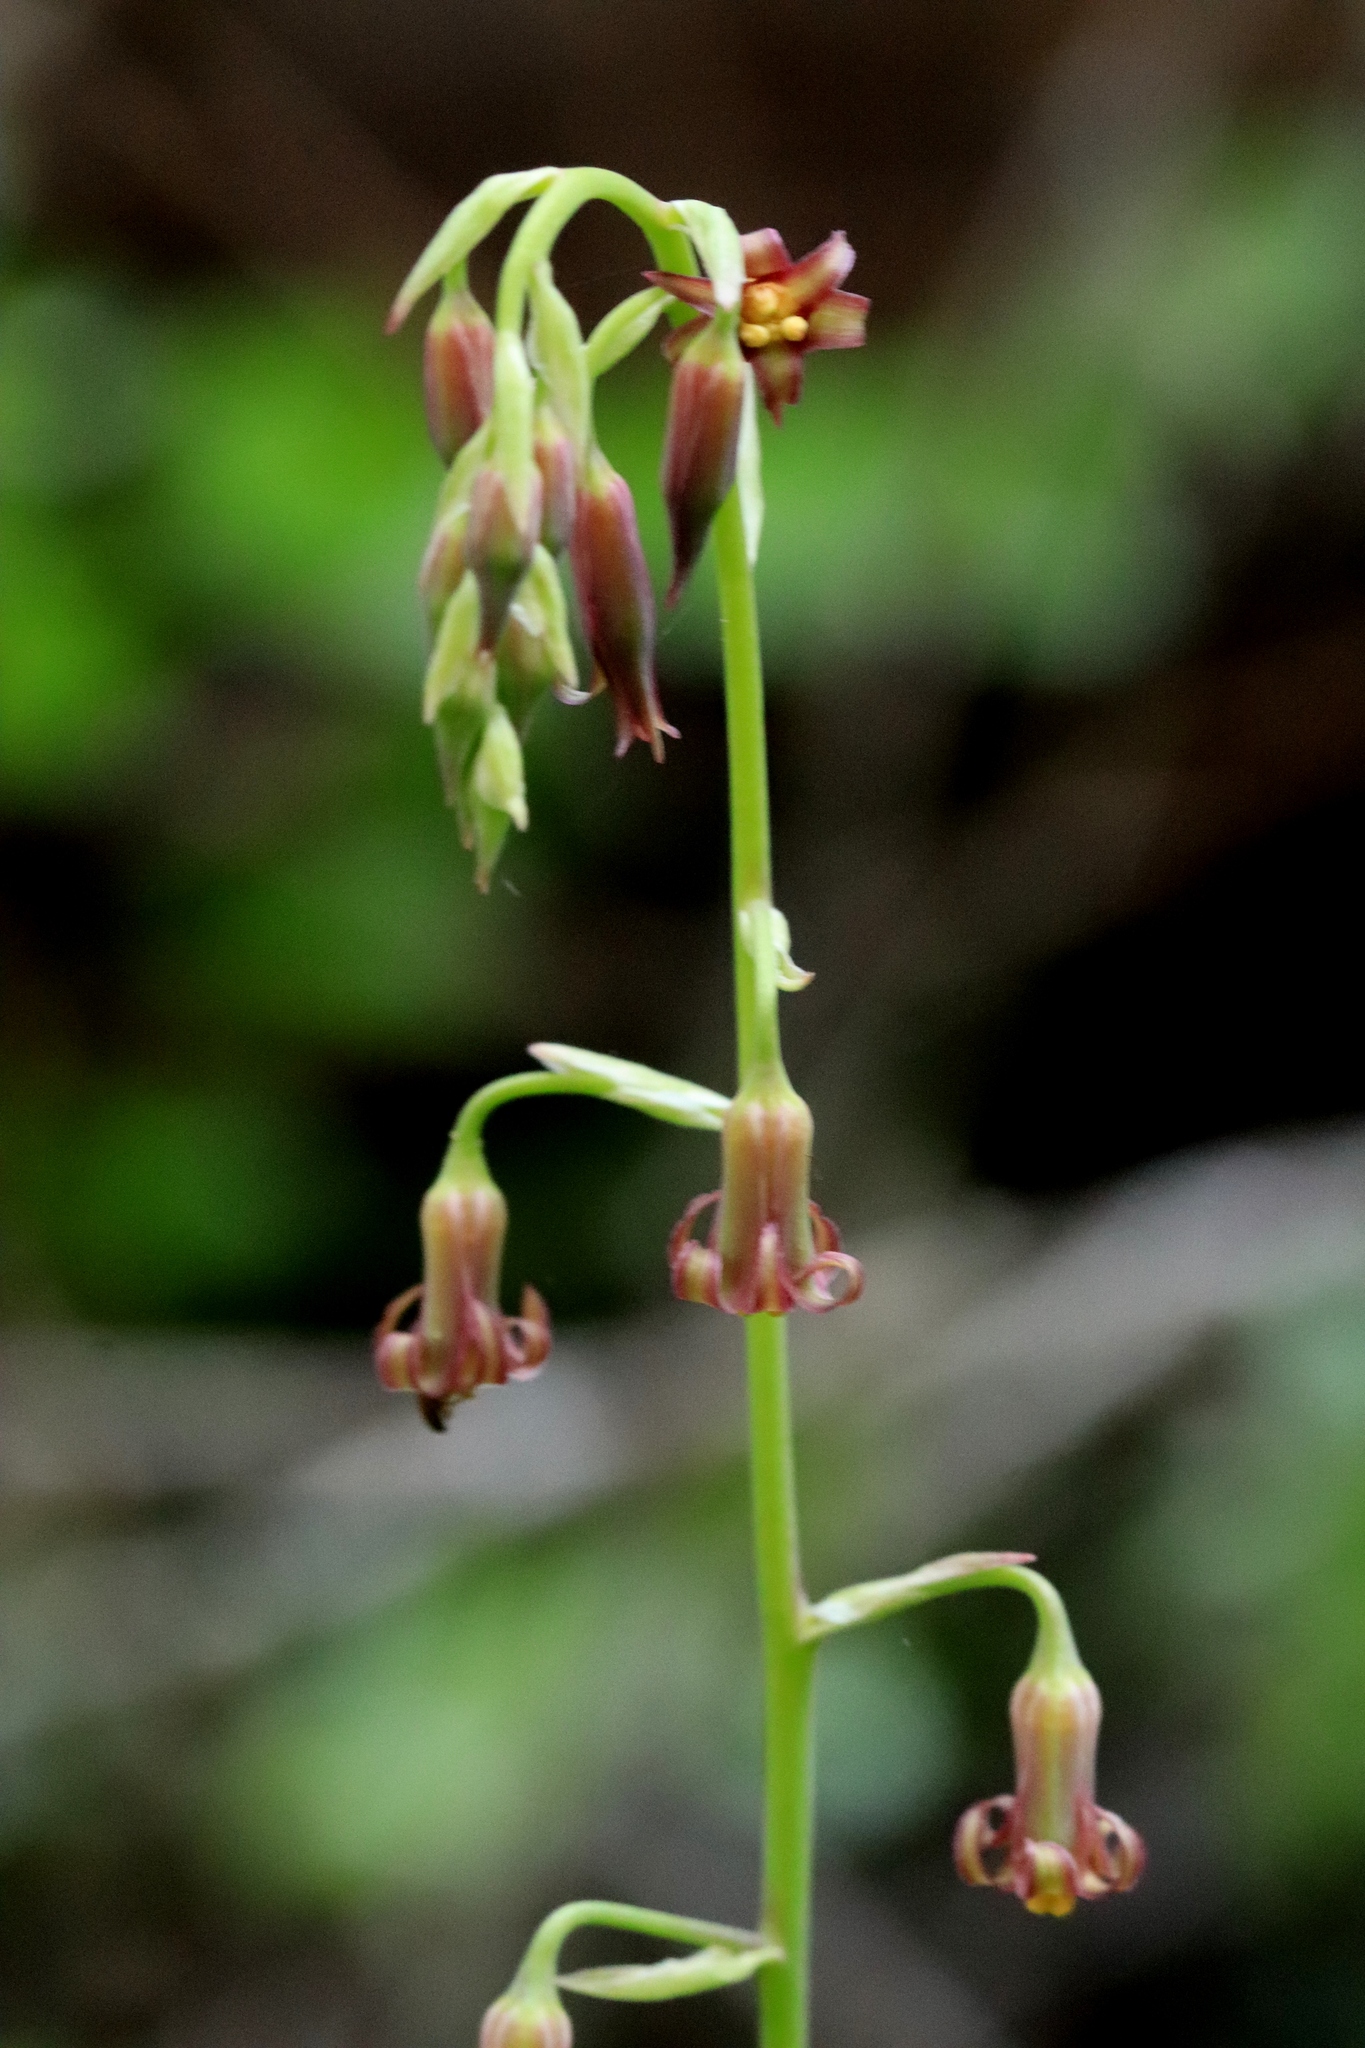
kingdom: Plantae
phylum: Tracheophyta
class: Liliopsida
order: Liliales
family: Melanthiaceae
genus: Anticlea
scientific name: Anticlea occidentalis
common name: Bronze-bells
